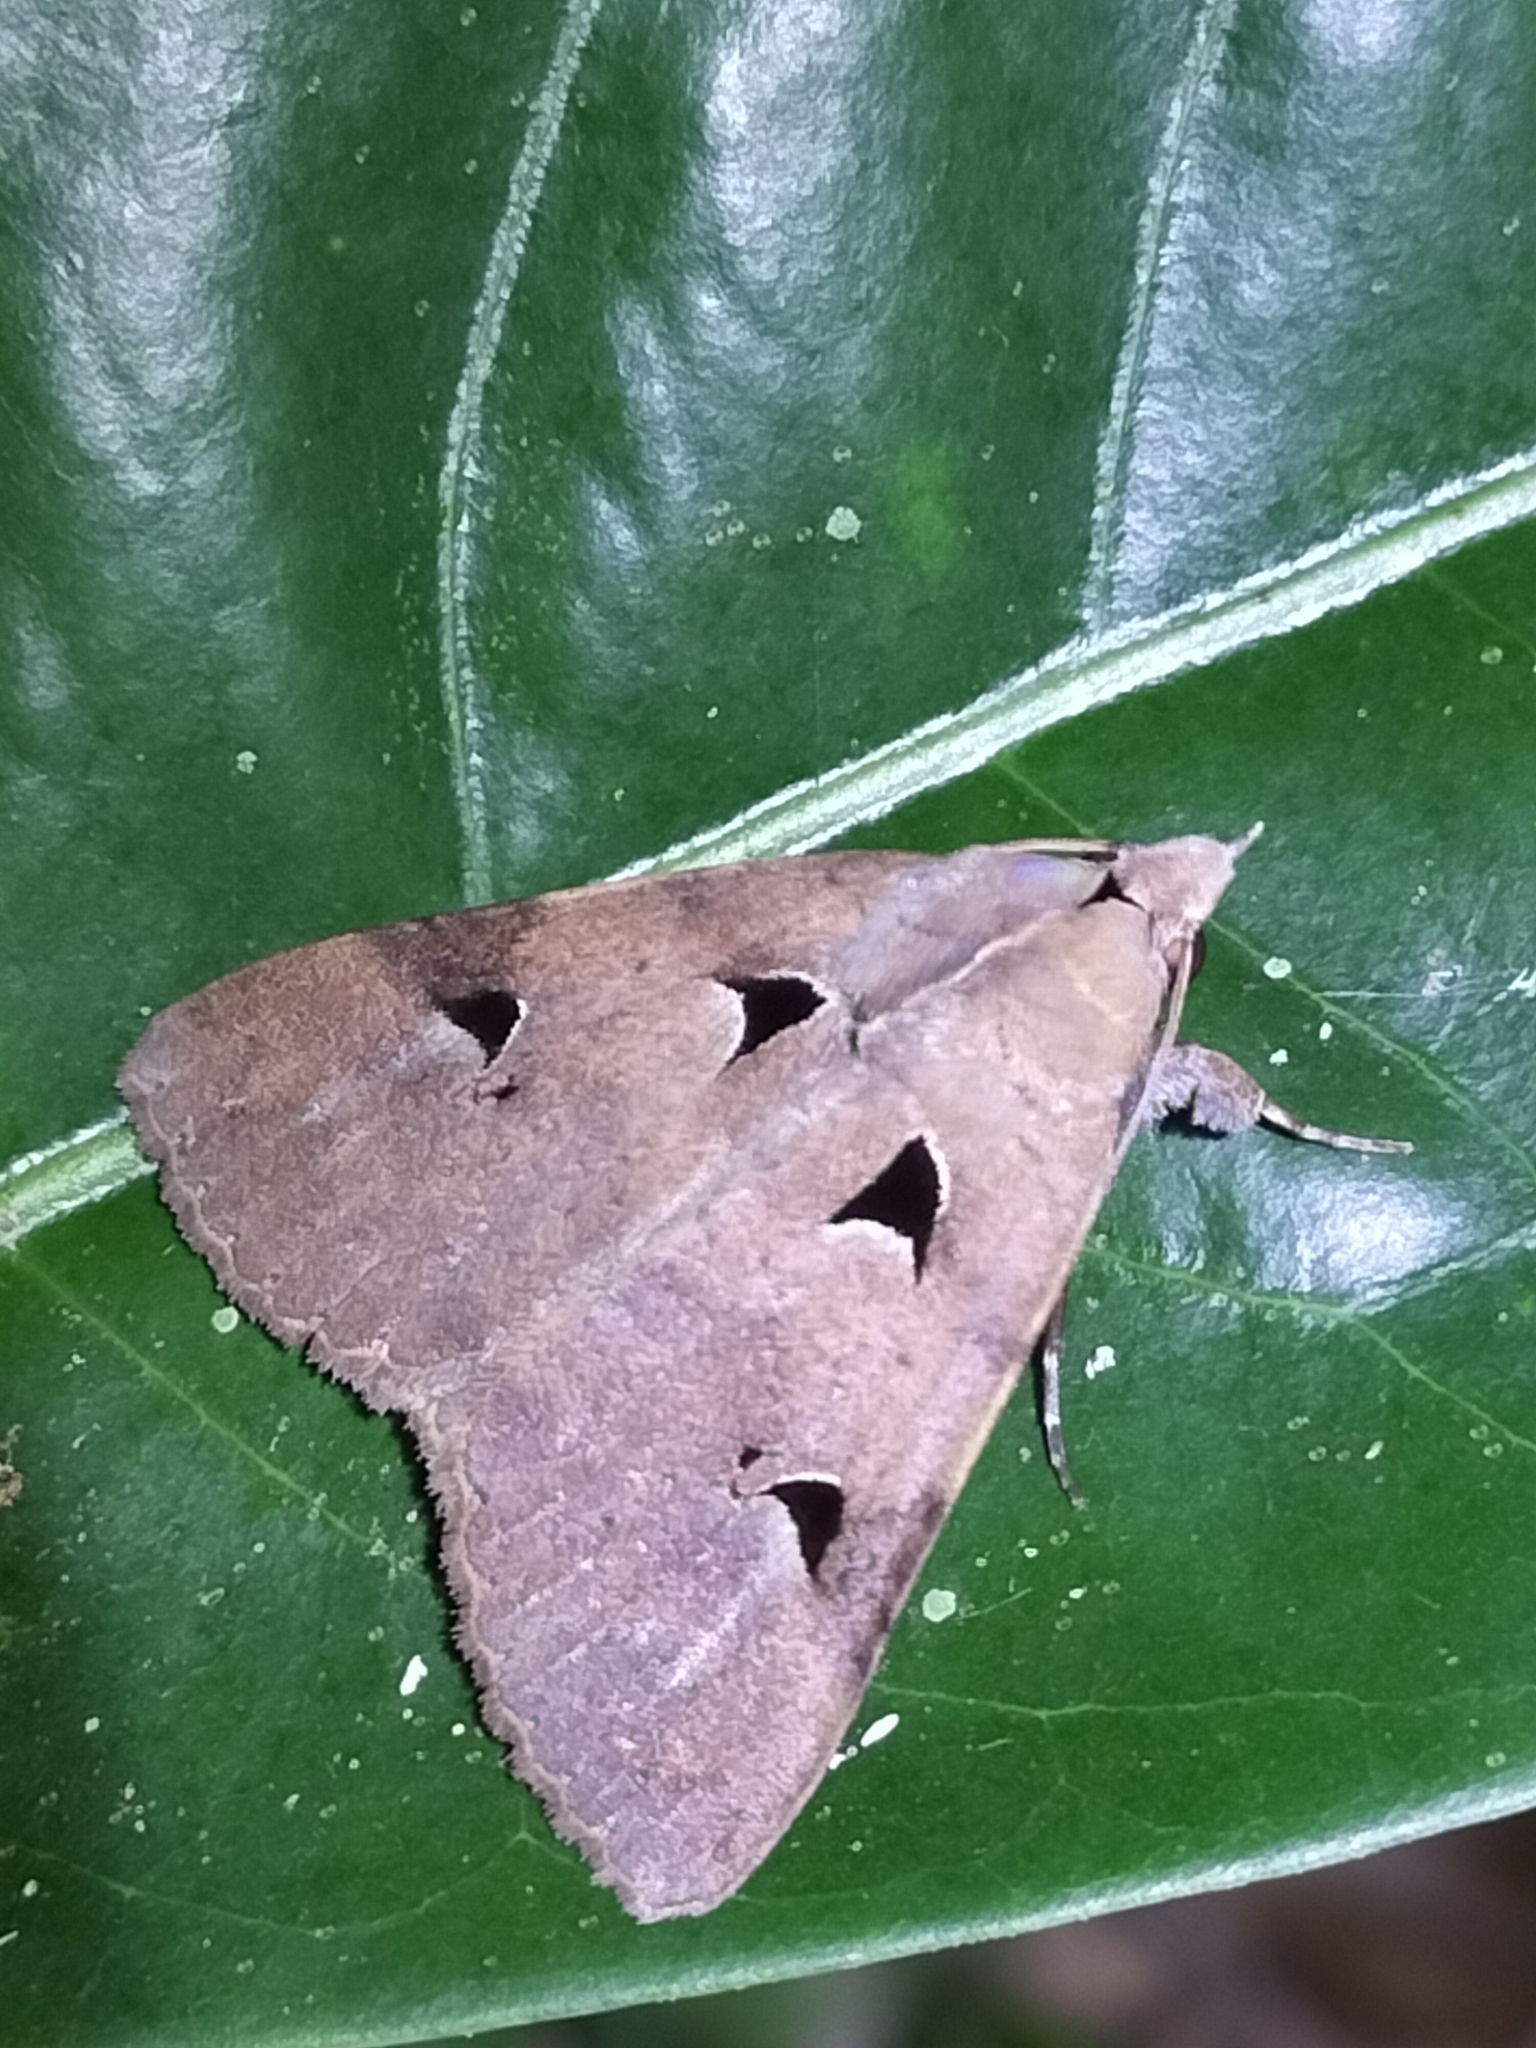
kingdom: Animalia
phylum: Arthropoda
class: Insecta
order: Lepidoptera
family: Erebidae
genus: Avatha
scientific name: Avatha discolor
